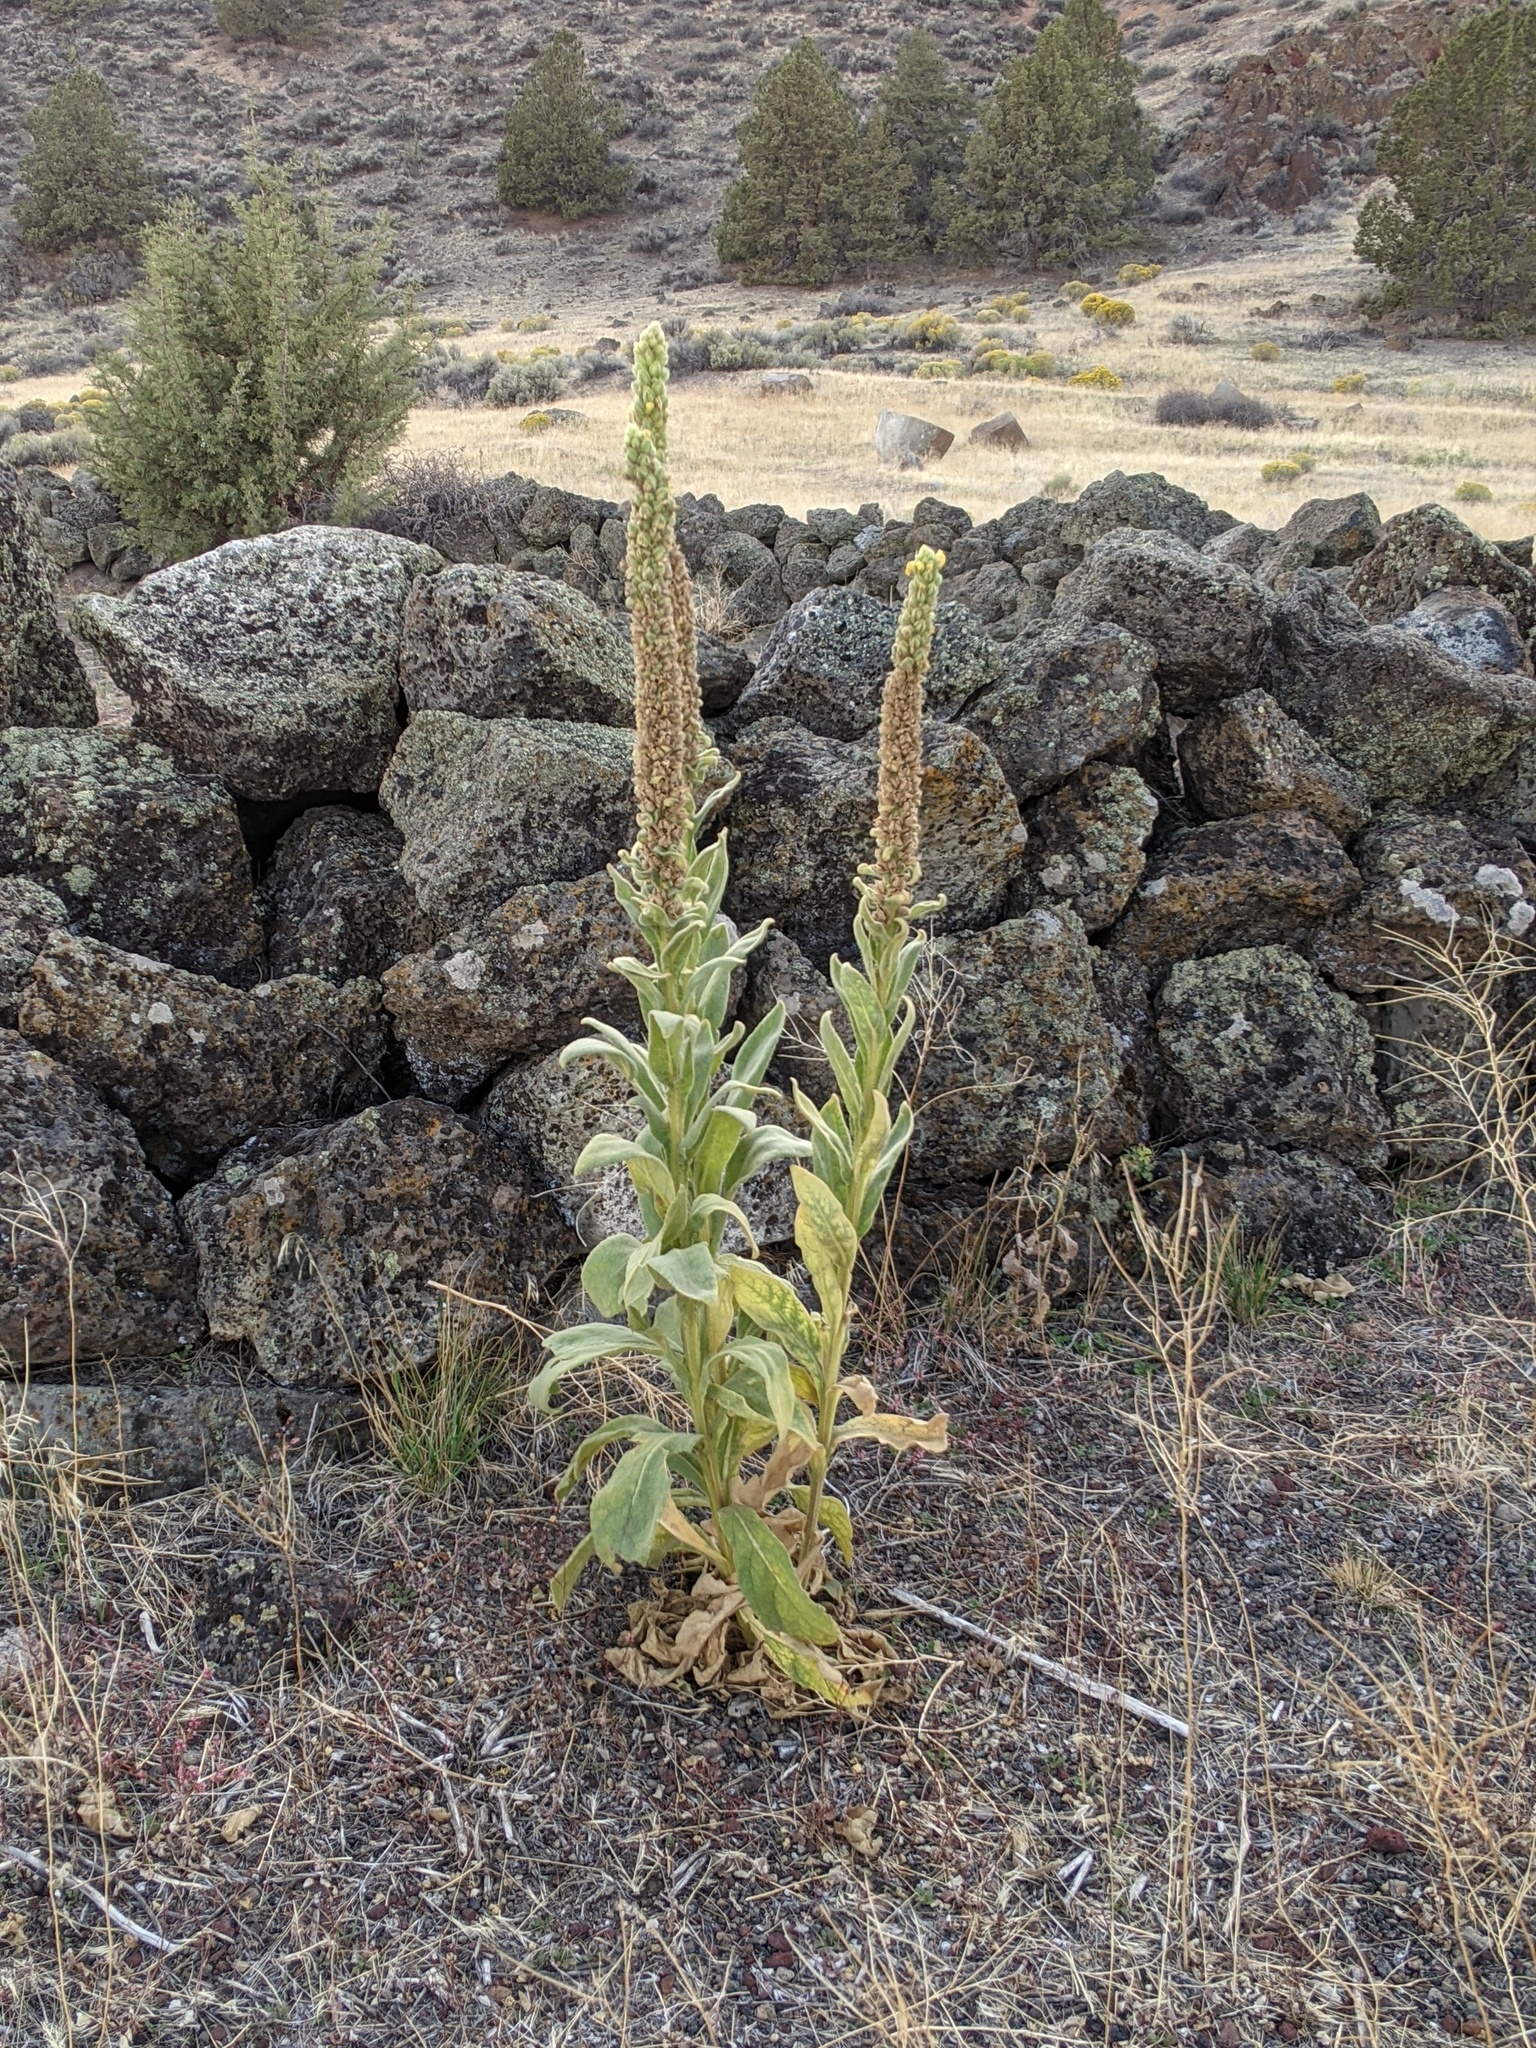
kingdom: Plantae
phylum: Tracheophyta
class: Magnoliopsida
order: Lamiales
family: Scrophulariaceae
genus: Verbascum
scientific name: Verbascum thapsus
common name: Common mullein
